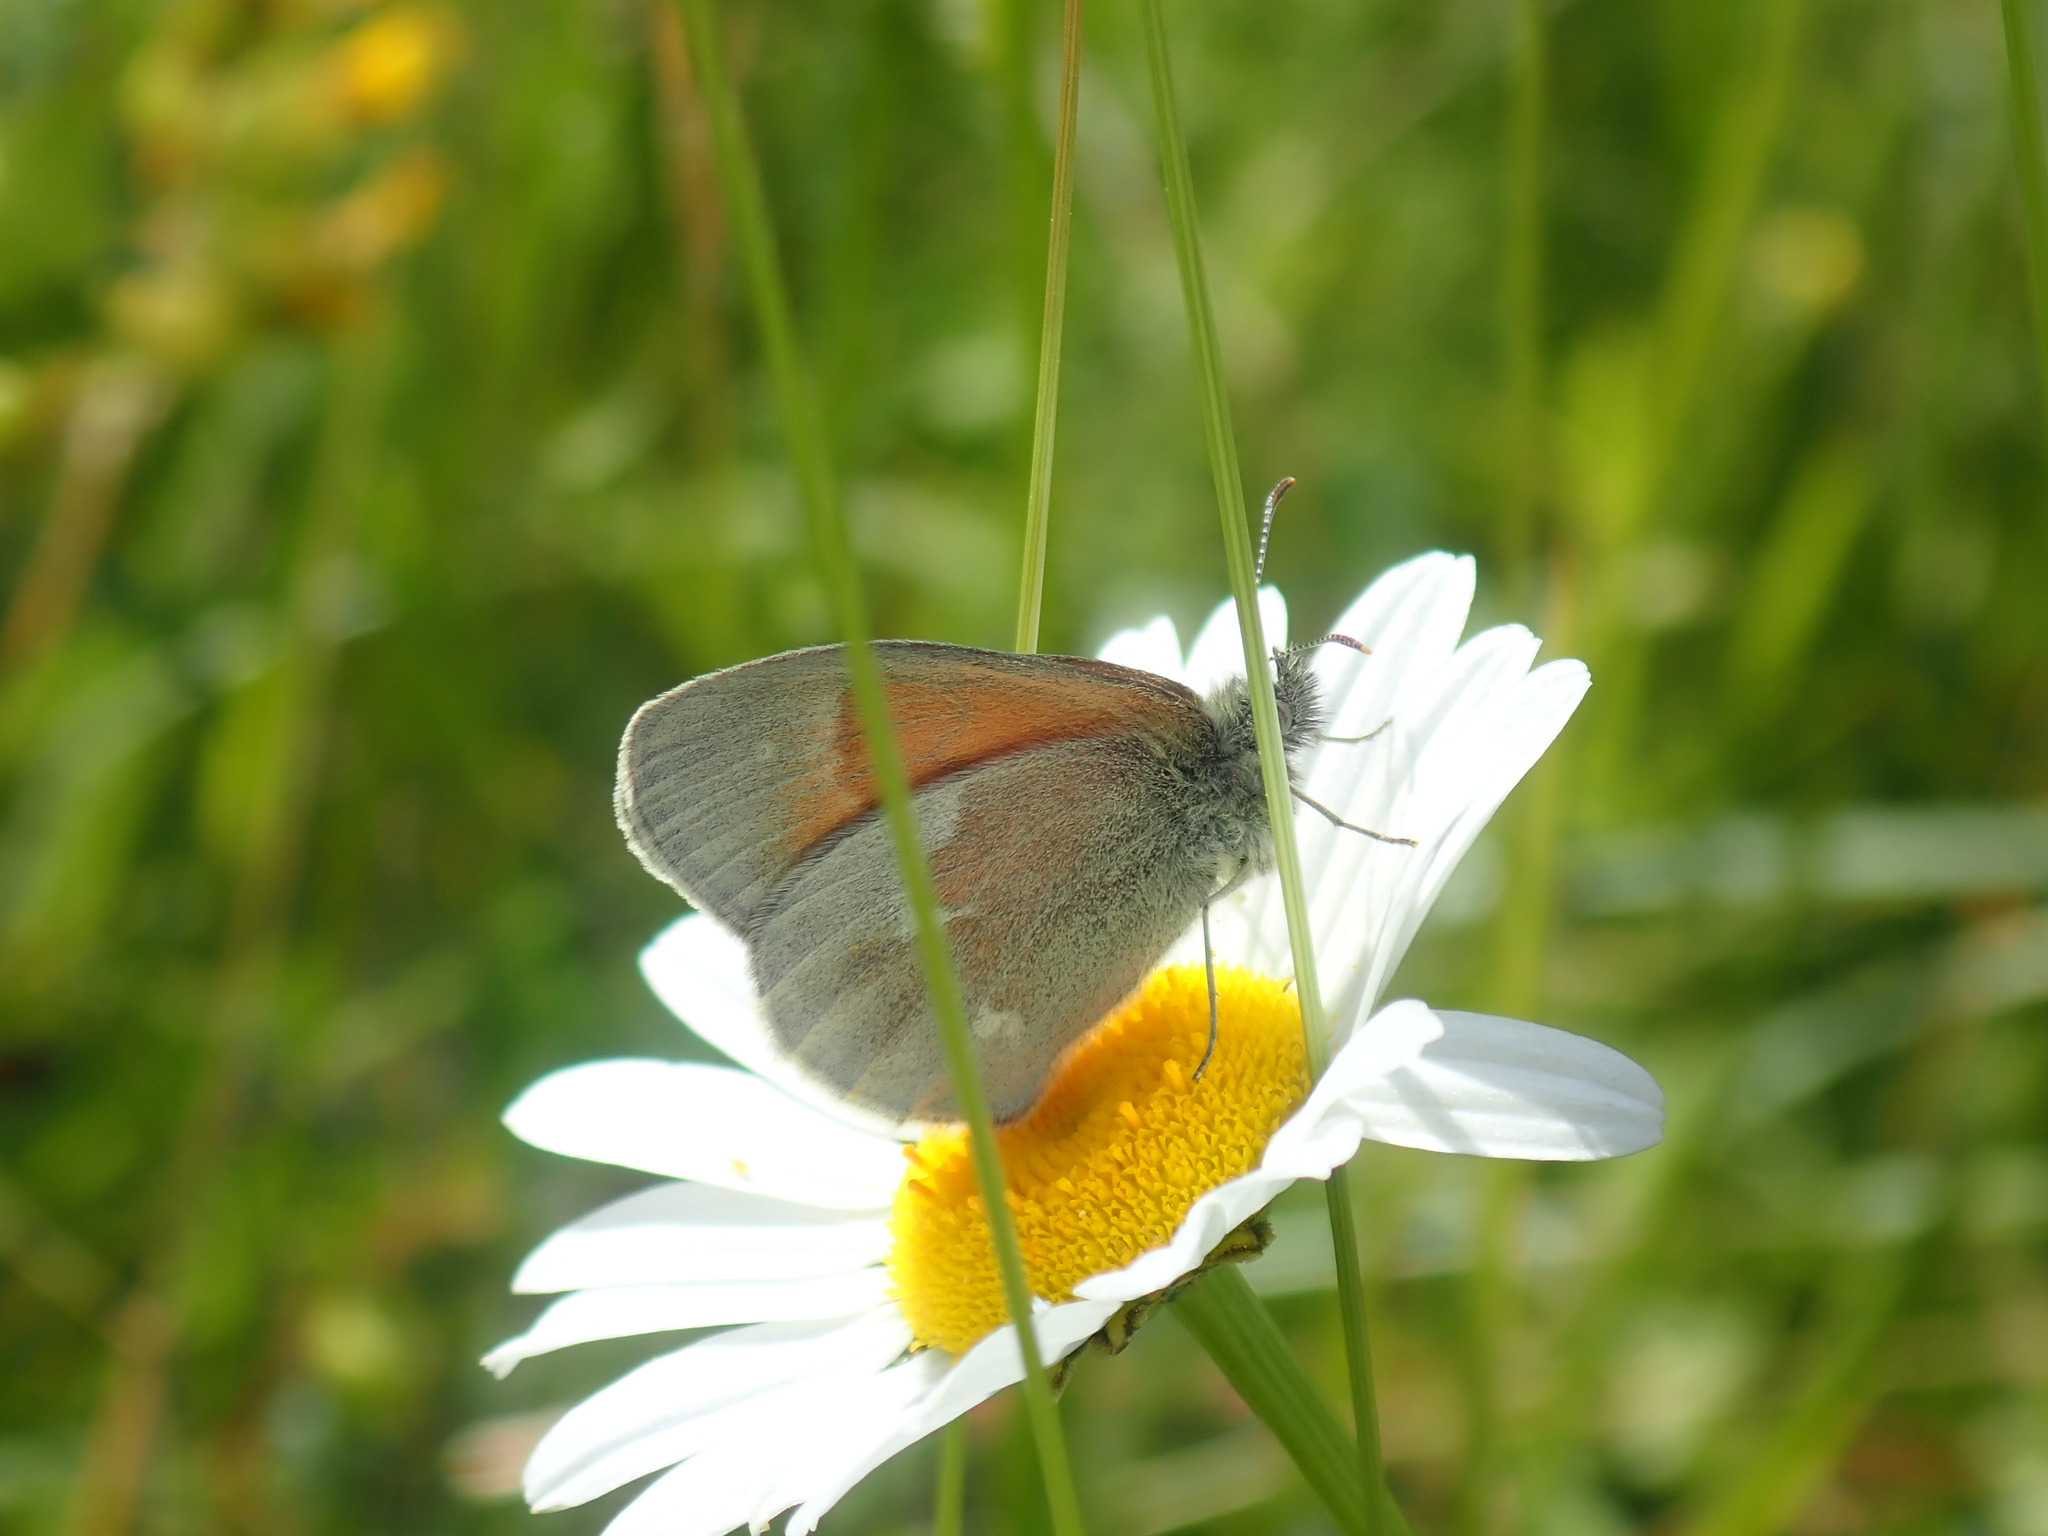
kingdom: Animalia
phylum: Arthropoda
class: Insecta
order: Lepidoptera
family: Nymphalidae
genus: Coenonympha
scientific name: Coenonympha california
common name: Common ringlet
